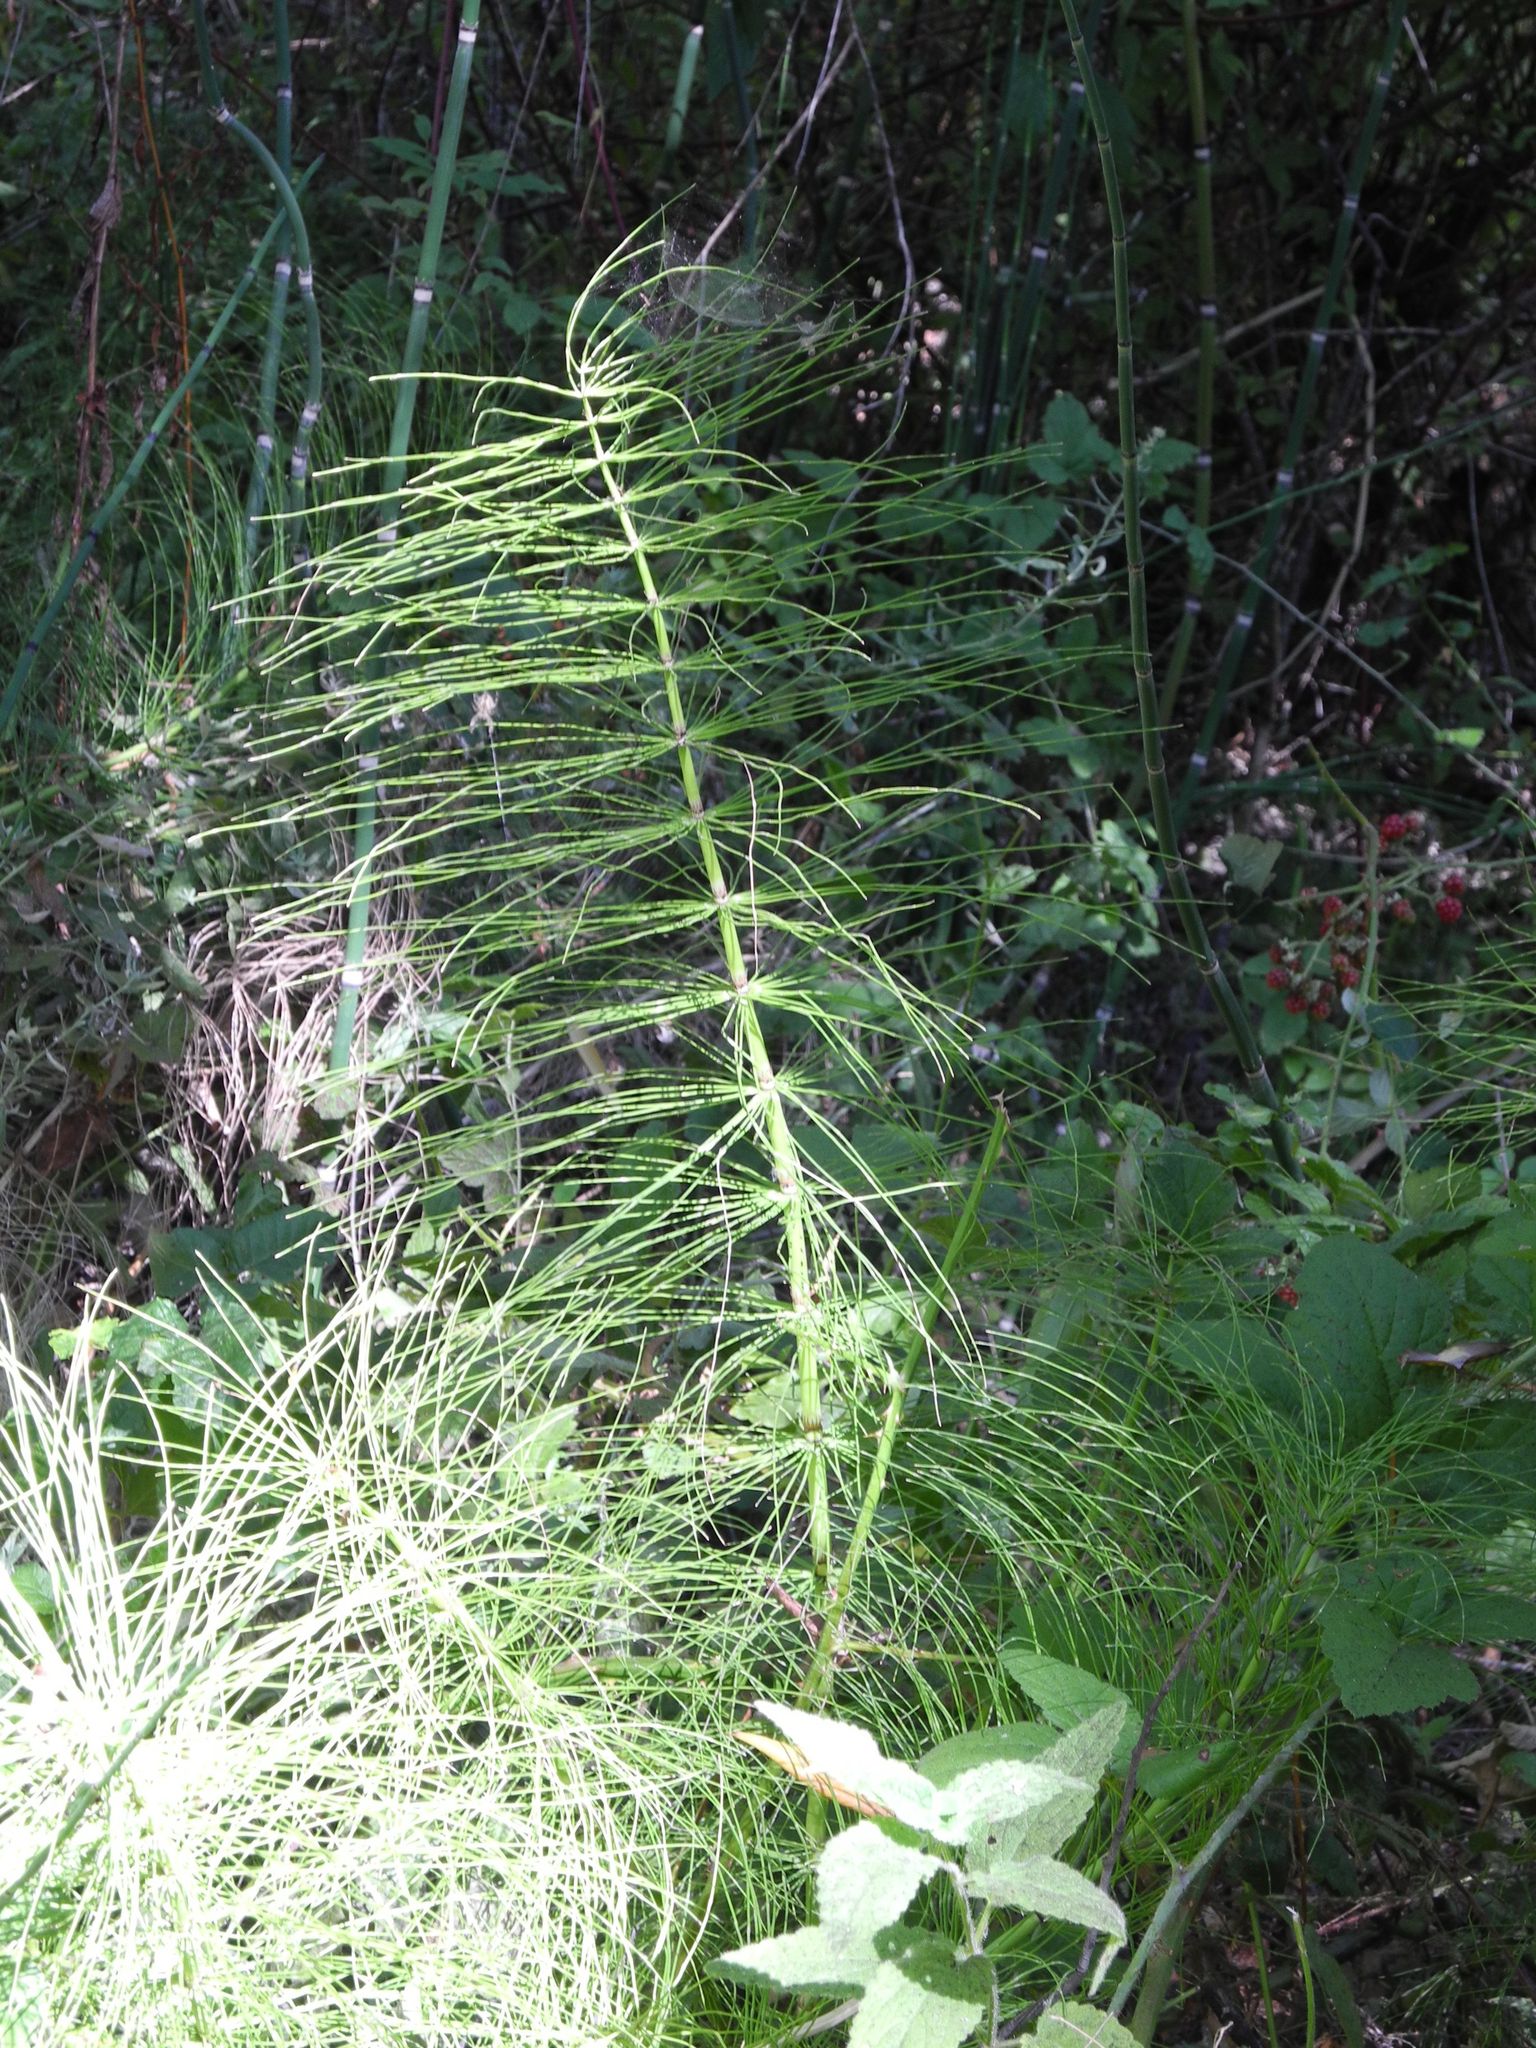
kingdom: Plantae
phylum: Tracheophyta
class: Polypodiopsida
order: Equisetales
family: Equisetaceae
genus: Equisetum
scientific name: Equisetum braunii
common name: Braun's horsetail
